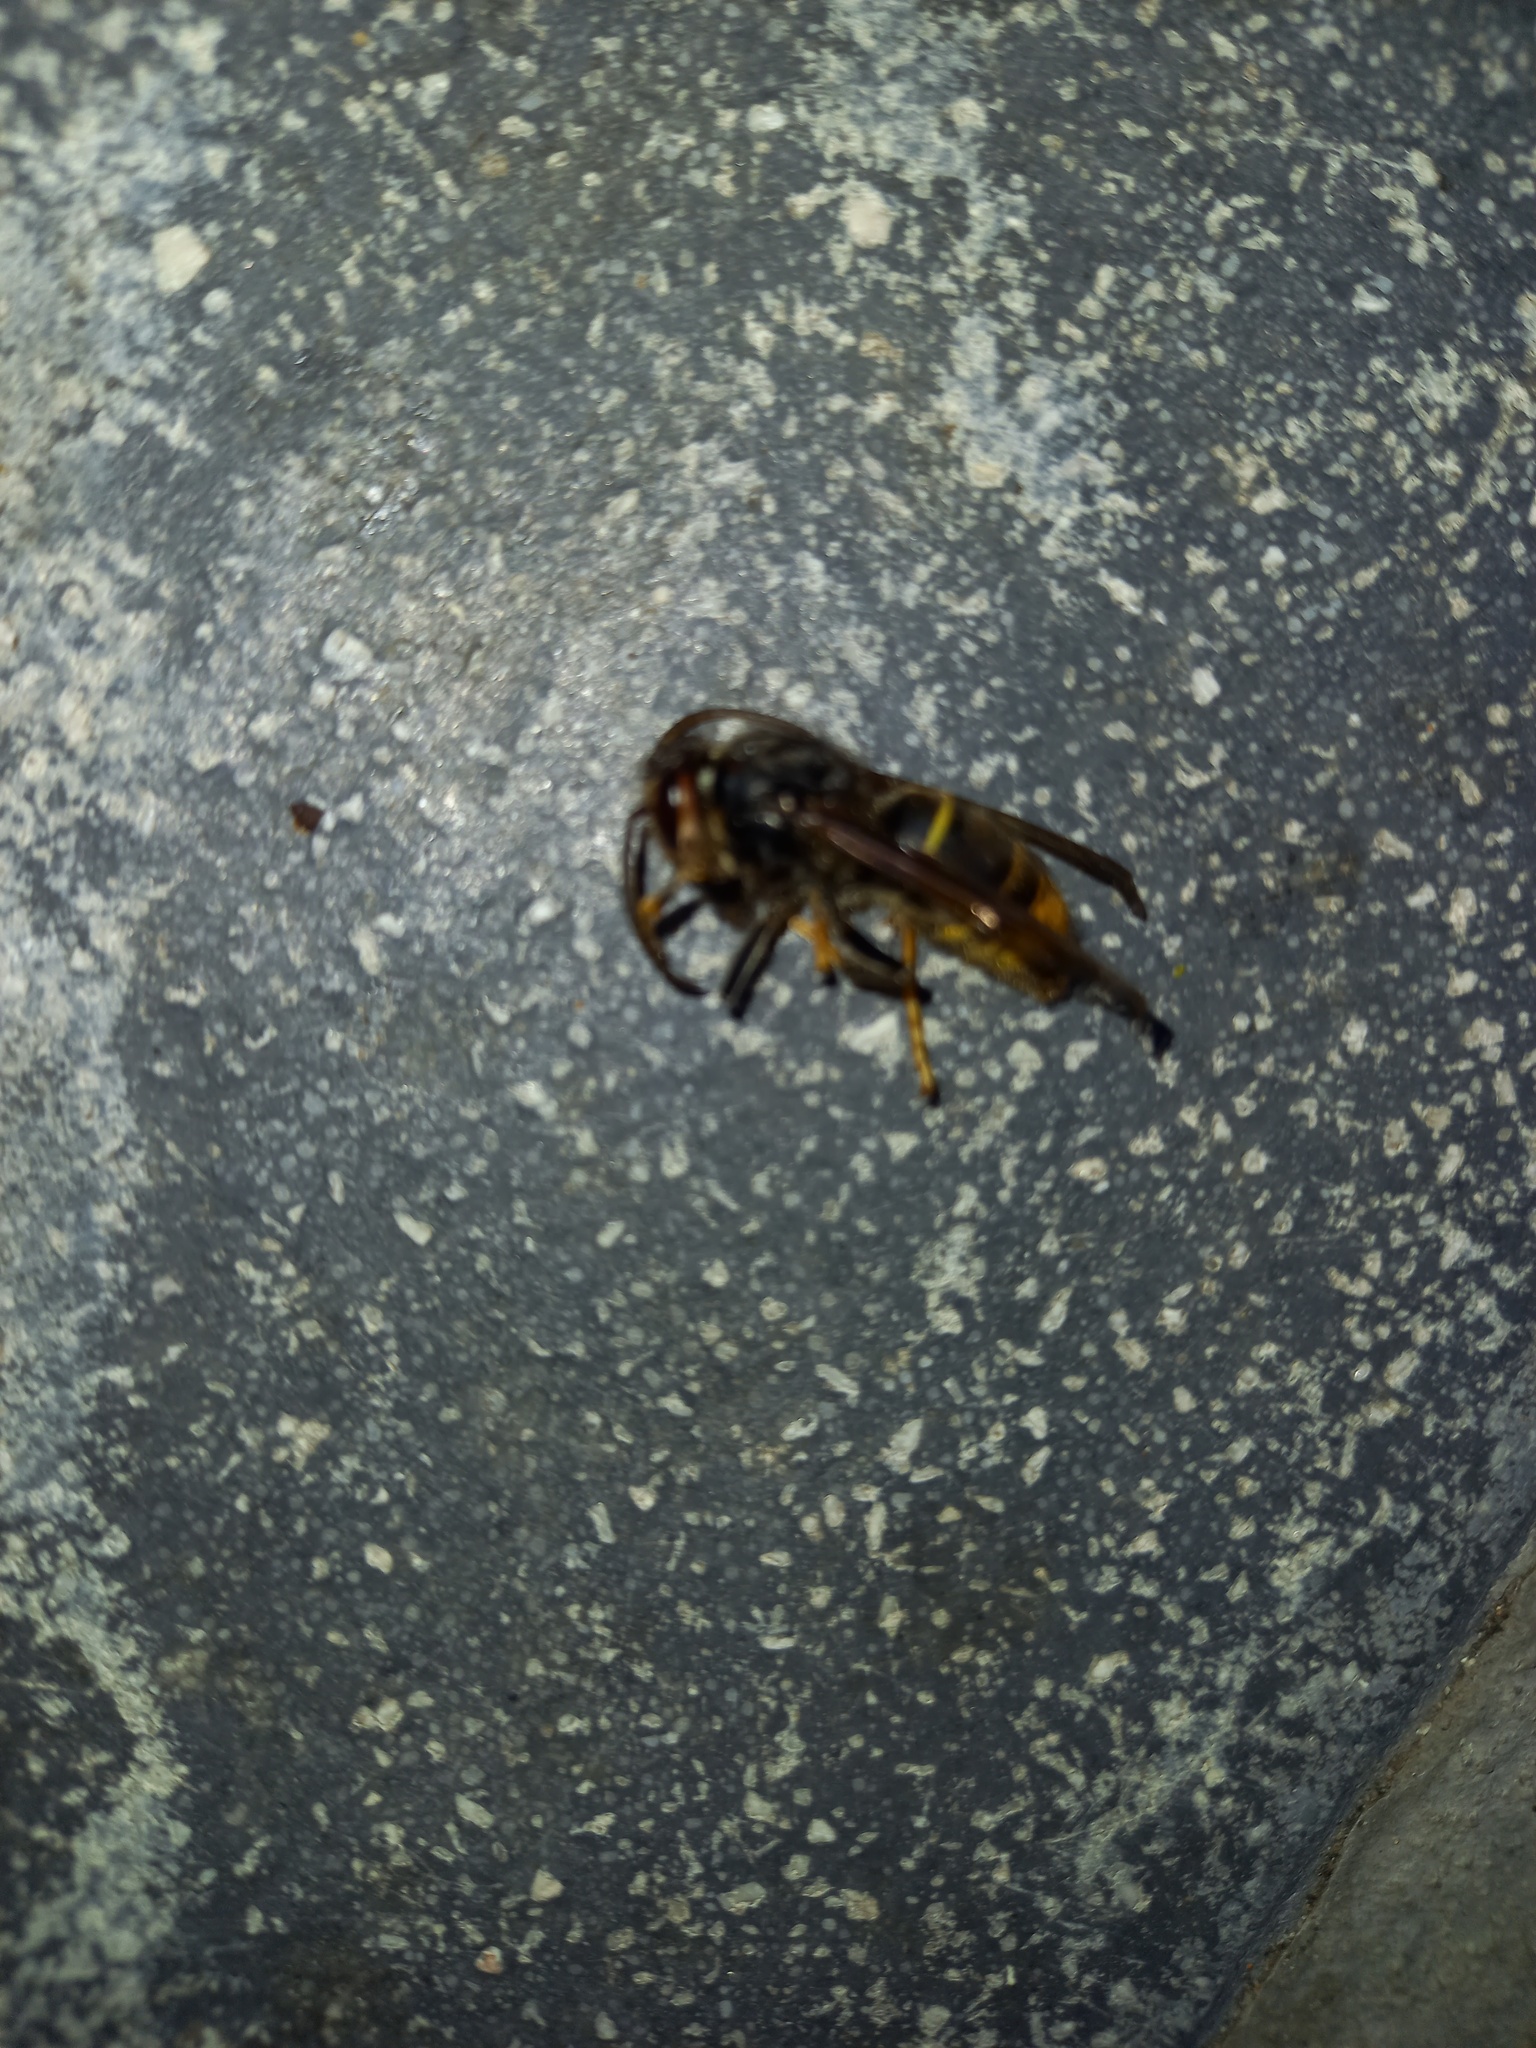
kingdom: Animalia
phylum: Arthropoda
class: Insecta
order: Hymenoptera
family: Vespidae
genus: Vespa
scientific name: Vespa velutina
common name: Asian hornet
